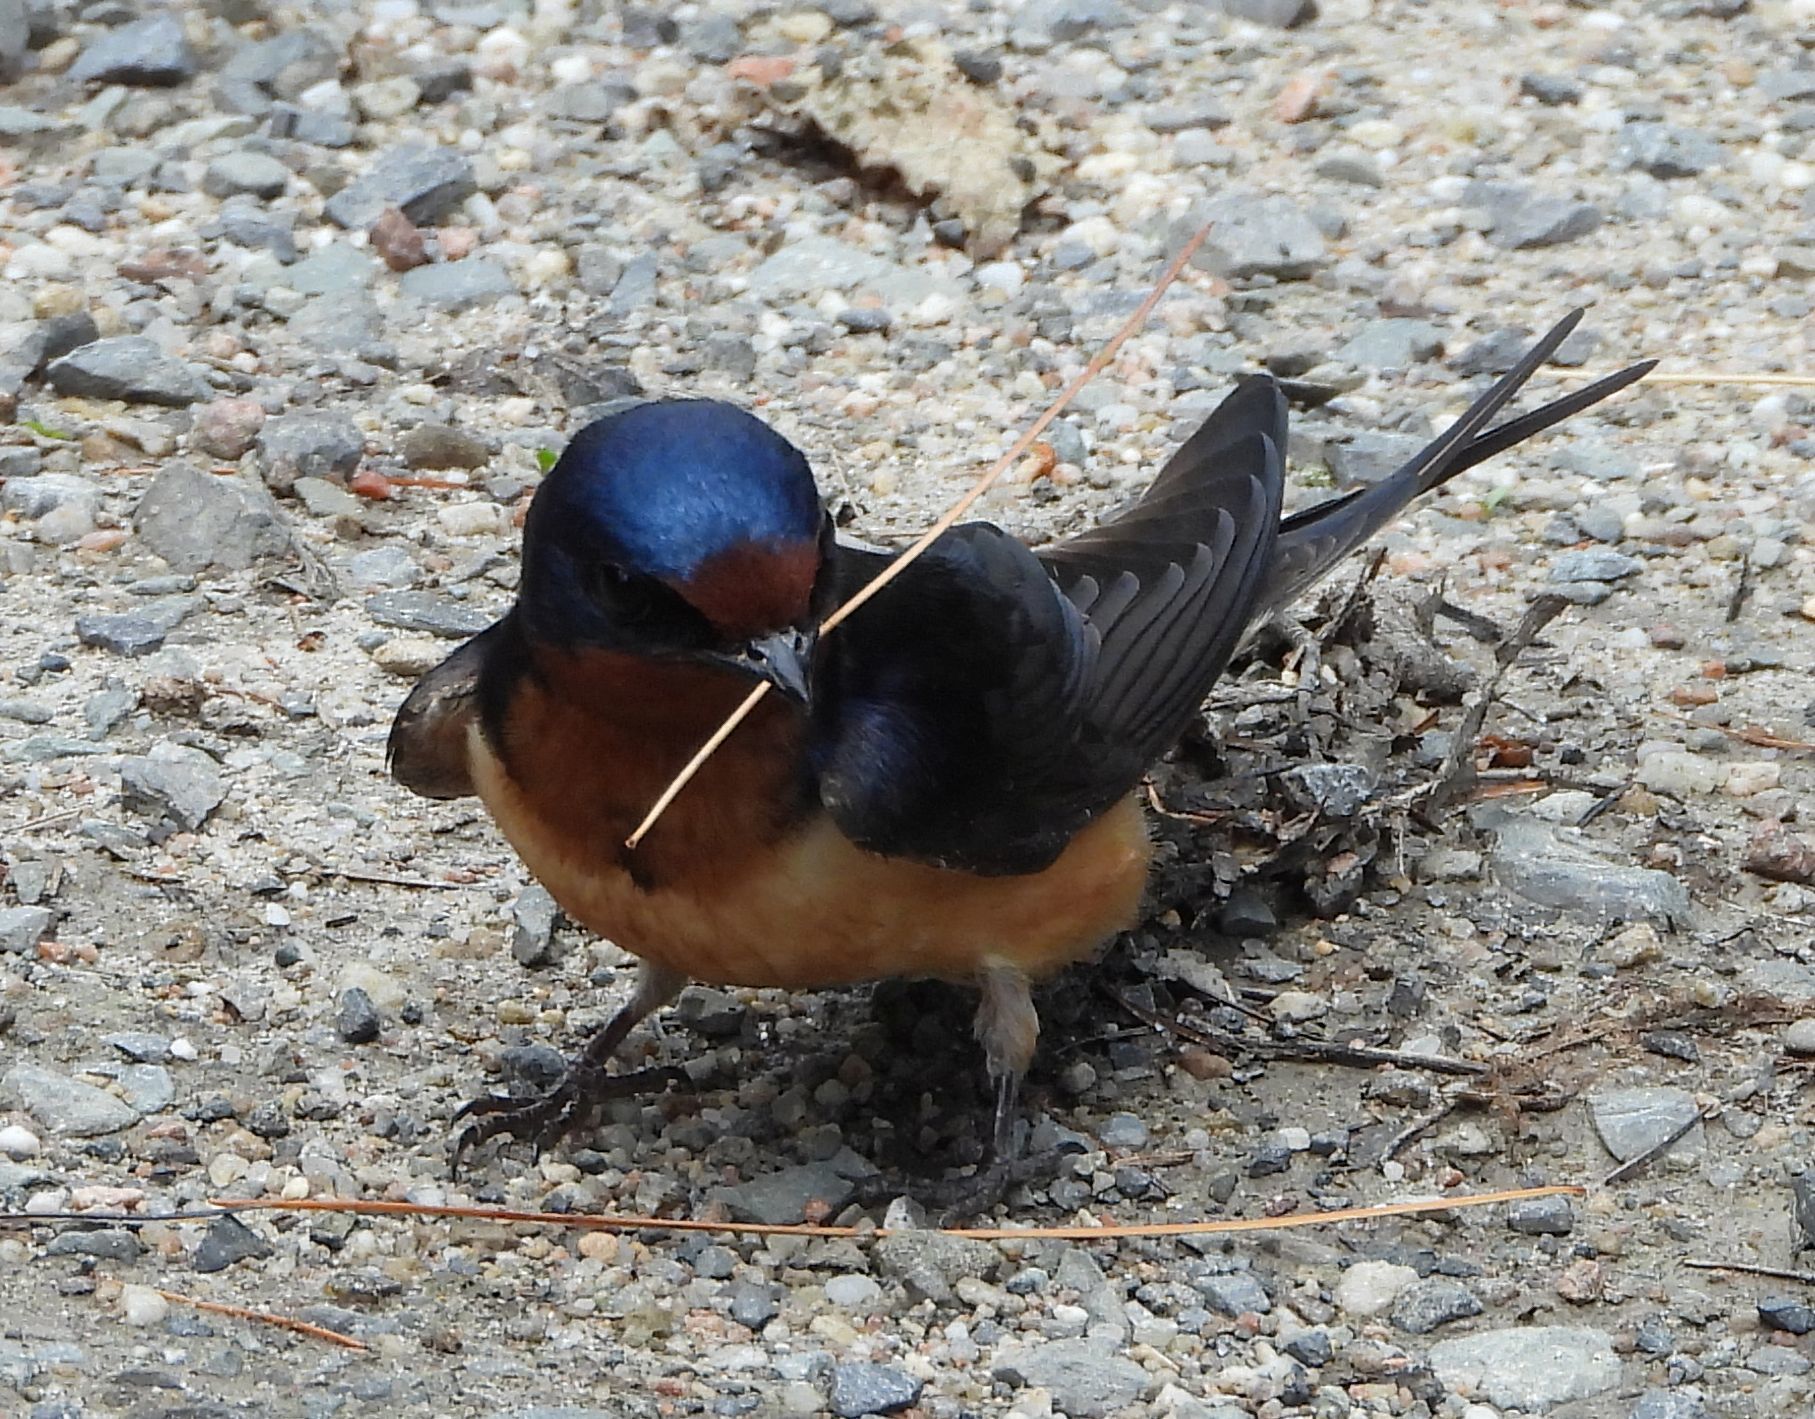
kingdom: Animalia
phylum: Chordata
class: Aves
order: Passeriformes
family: Hirundinidae
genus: Hirundo
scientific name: Hirundo rustica
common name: Barn swallow
